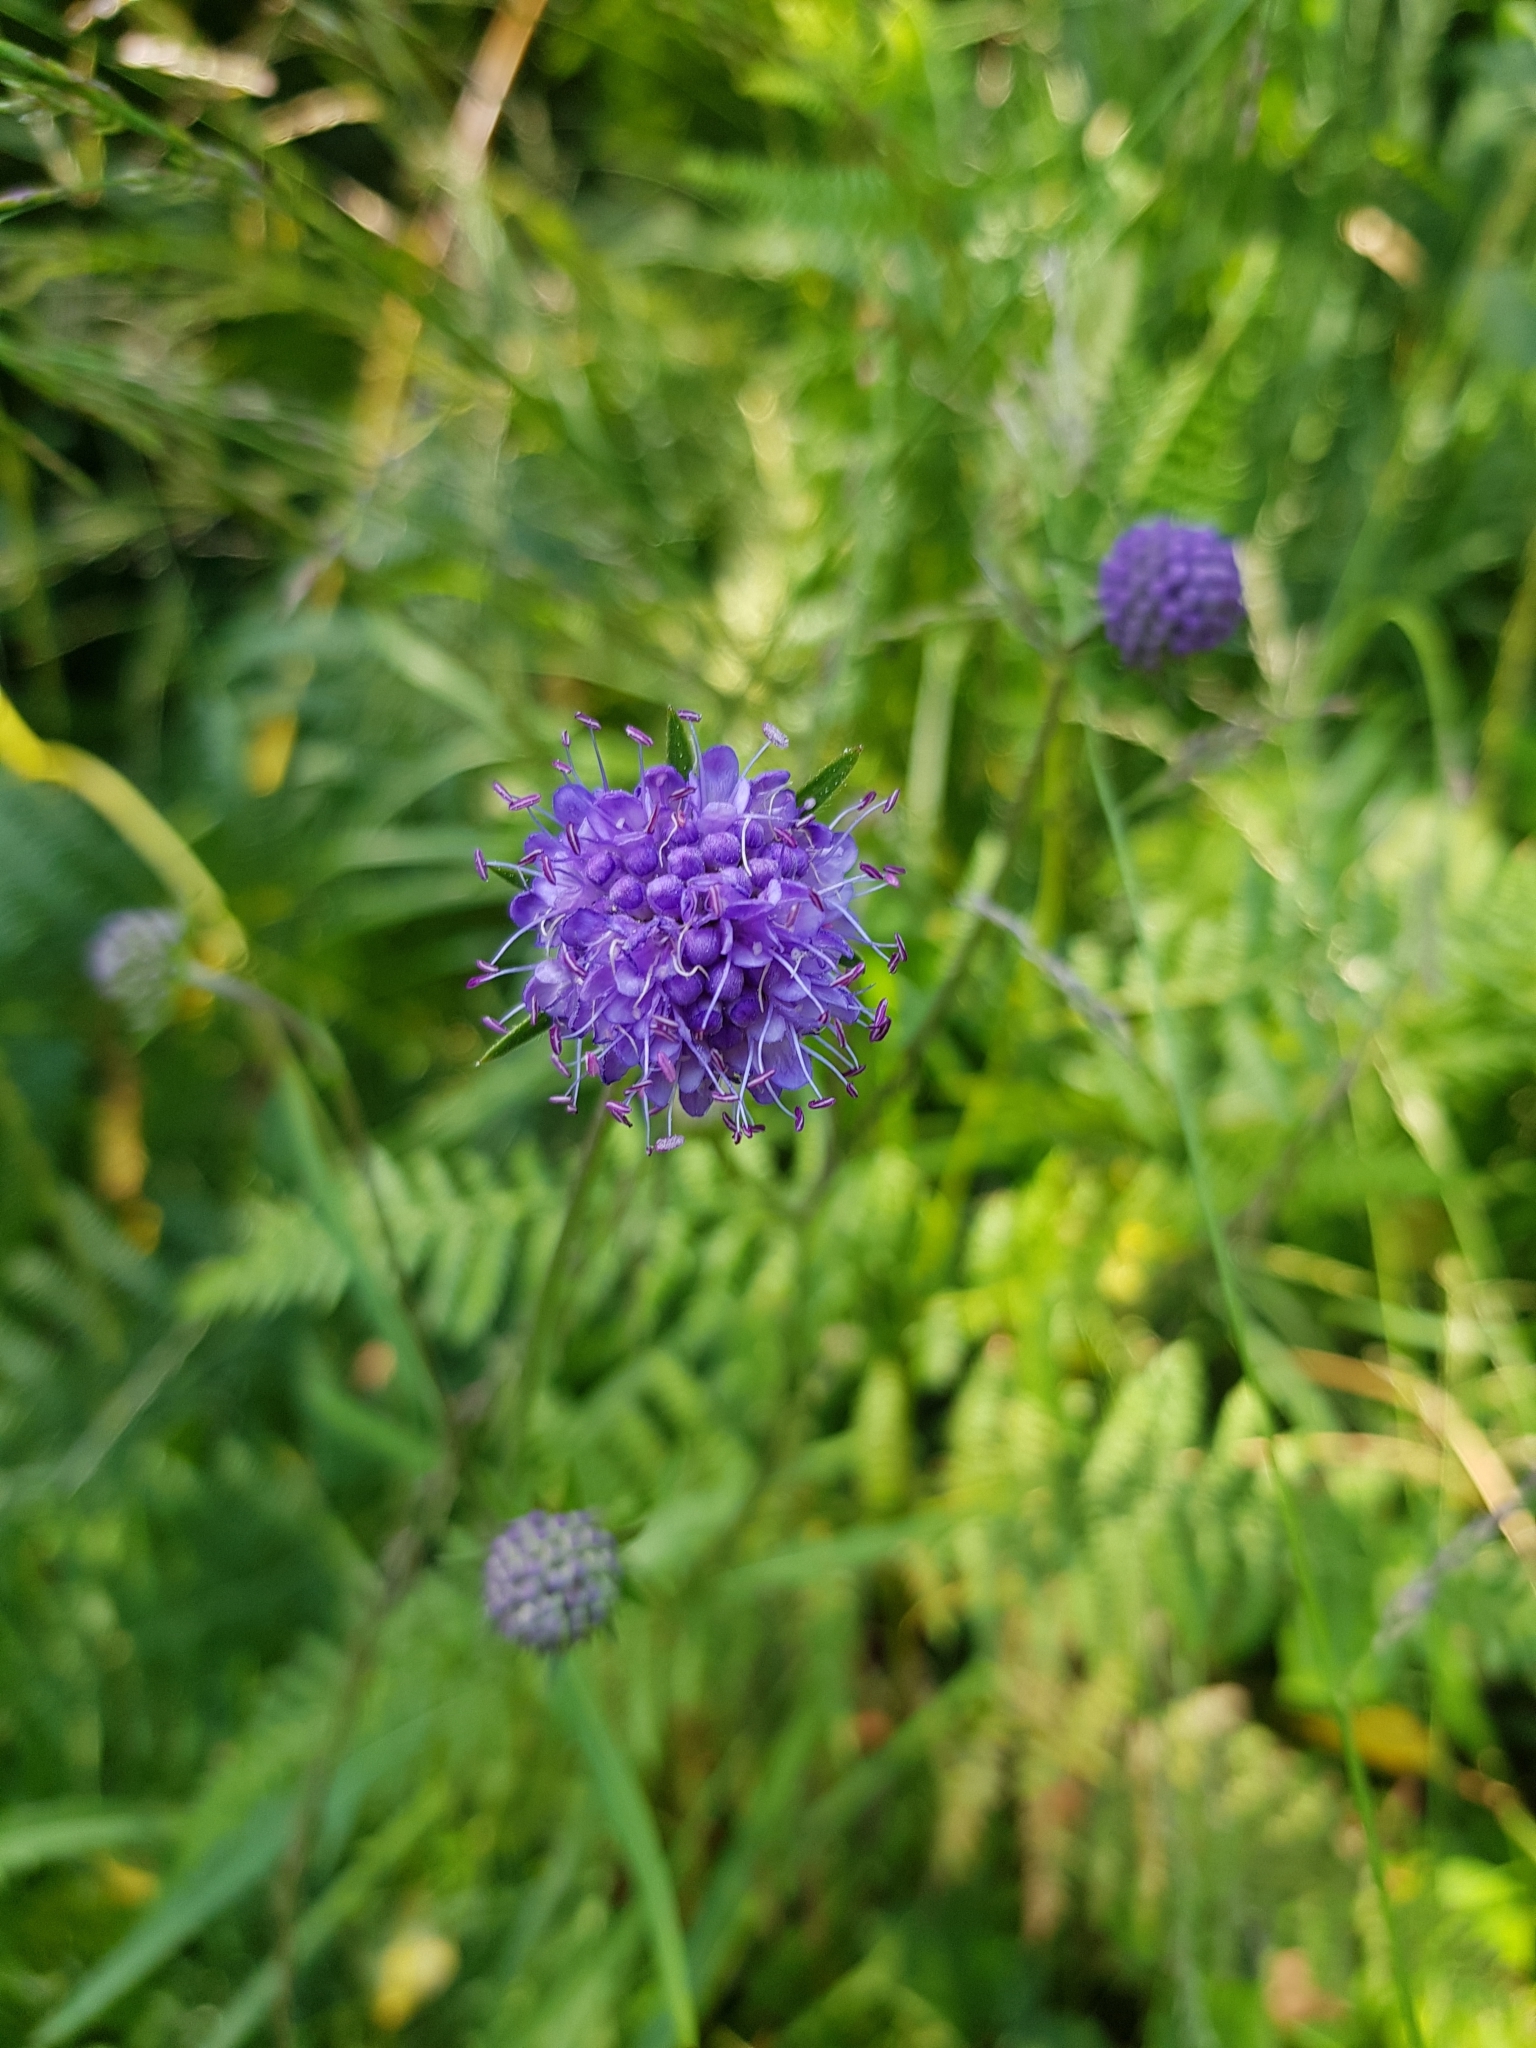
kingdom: Plantae
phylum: Tracheophyta
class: Magnoliopsida
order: Dipsacales
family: Caprifoliaceae
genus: Succisa
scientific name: Succisa pratensis
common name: Devil's-bit
